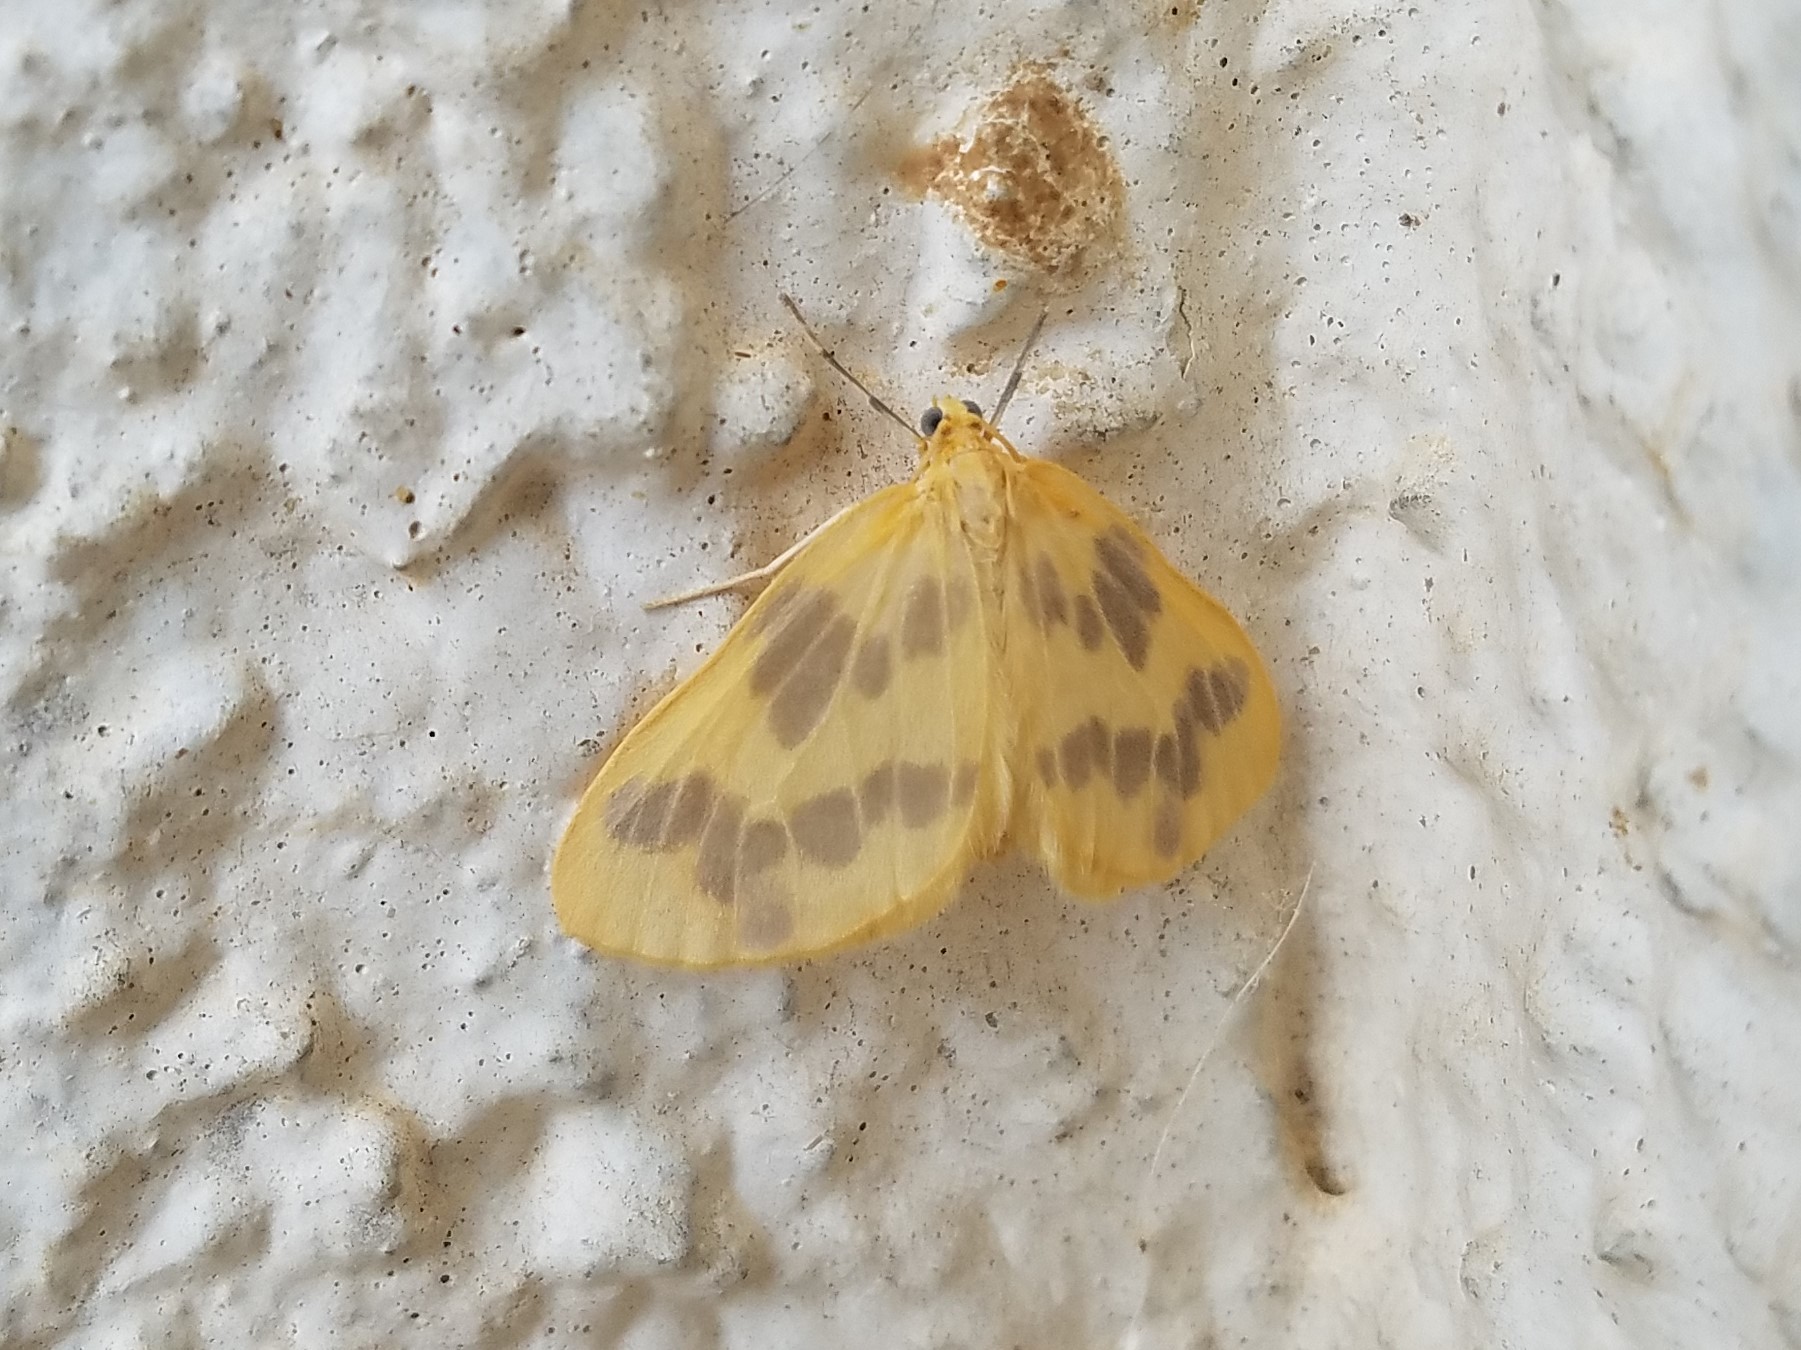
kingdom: Animalia
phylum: Arthropoda
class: Insecta
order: Lepidoptera
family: Geometridae
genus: Eubaphe
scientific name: Eubaphe mendica
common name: Beggar
